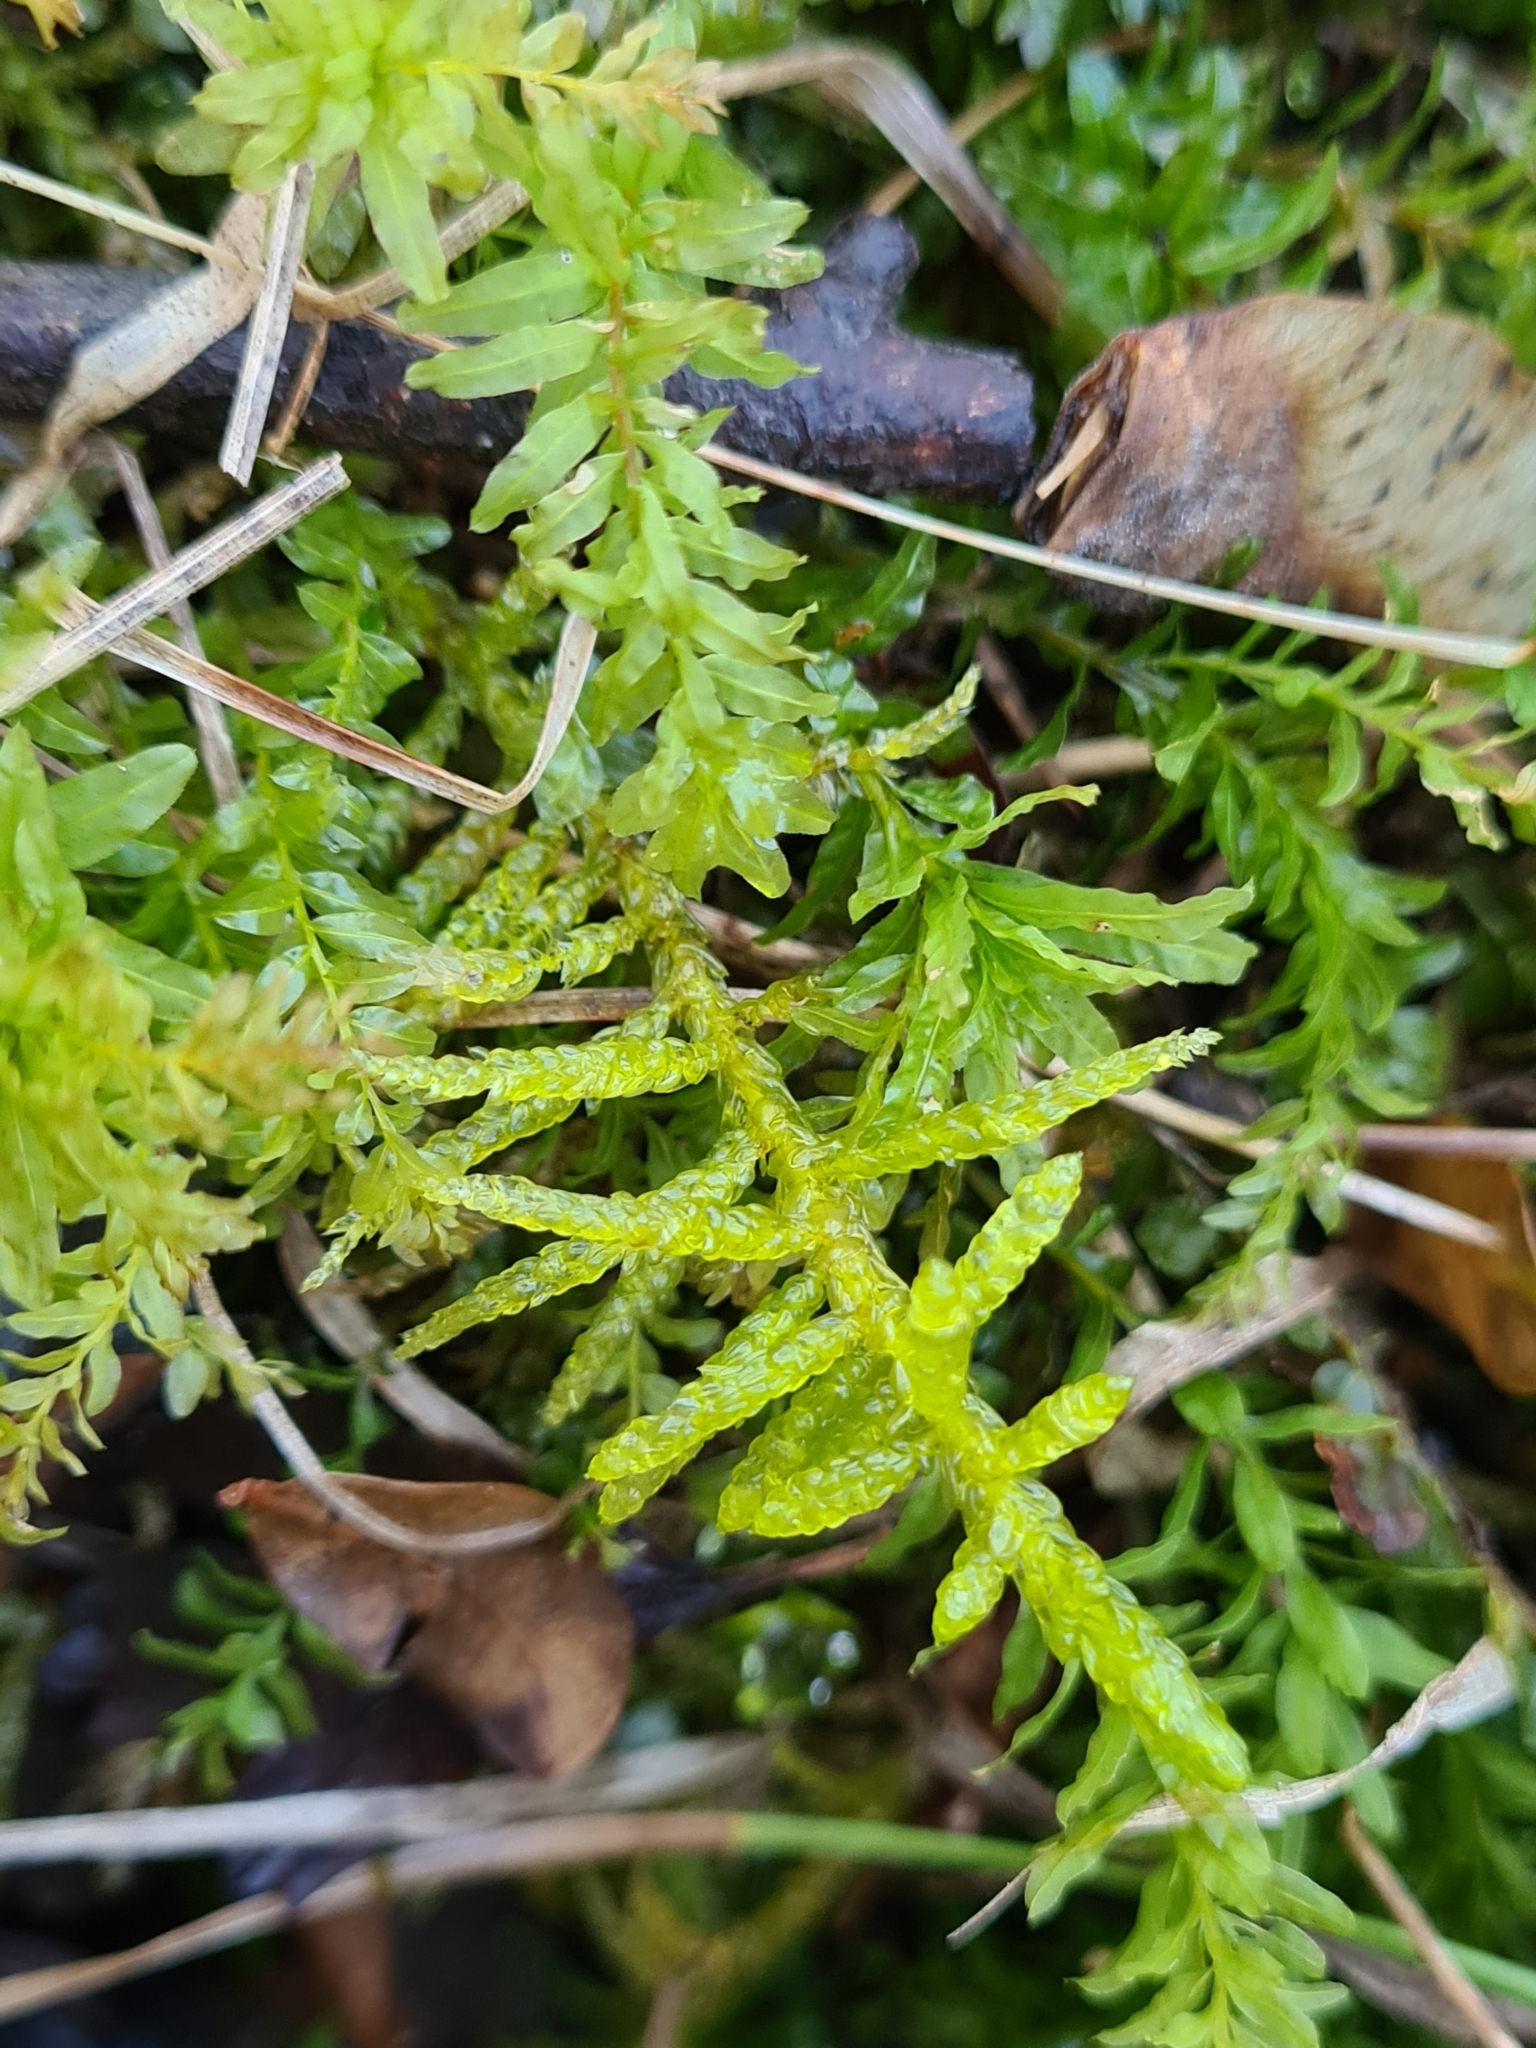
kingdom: Plantae
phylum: Bryophyta
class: Bryopsida
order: Hypnales
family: Brachytheciaceae
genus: Pseudoscleropodium
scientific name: Pseudoscleropodium purum
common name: Neat feather-moss
